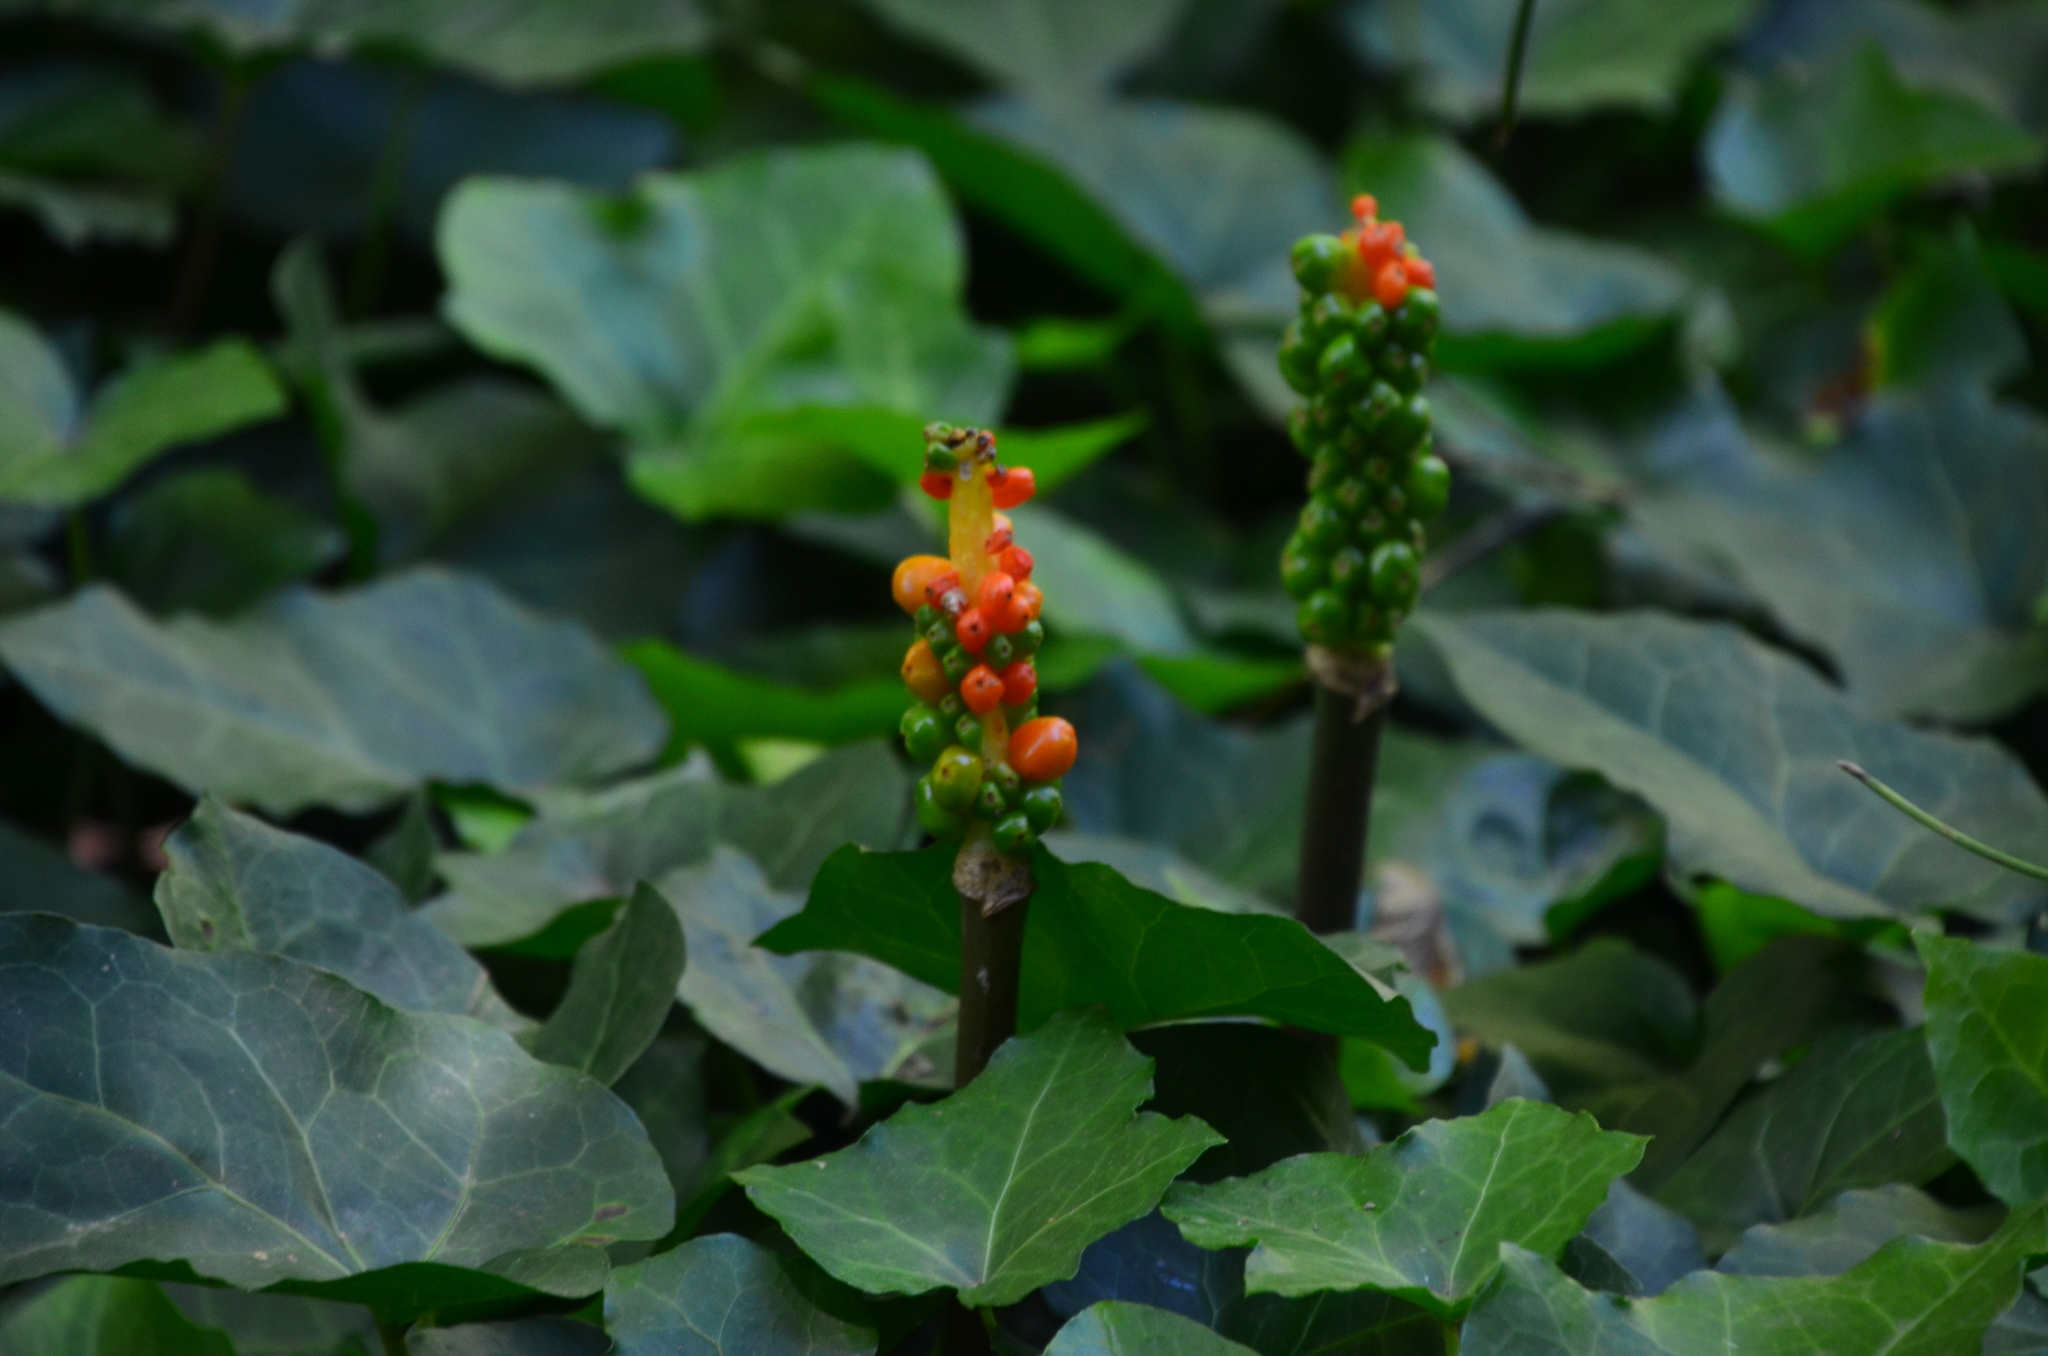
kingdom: Plantae
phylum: Tracheophyta
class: Liliopsida
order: Alismatales
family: Araceae
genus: Arum
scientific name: Arum italicum
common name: Italian lords-and-ladies
